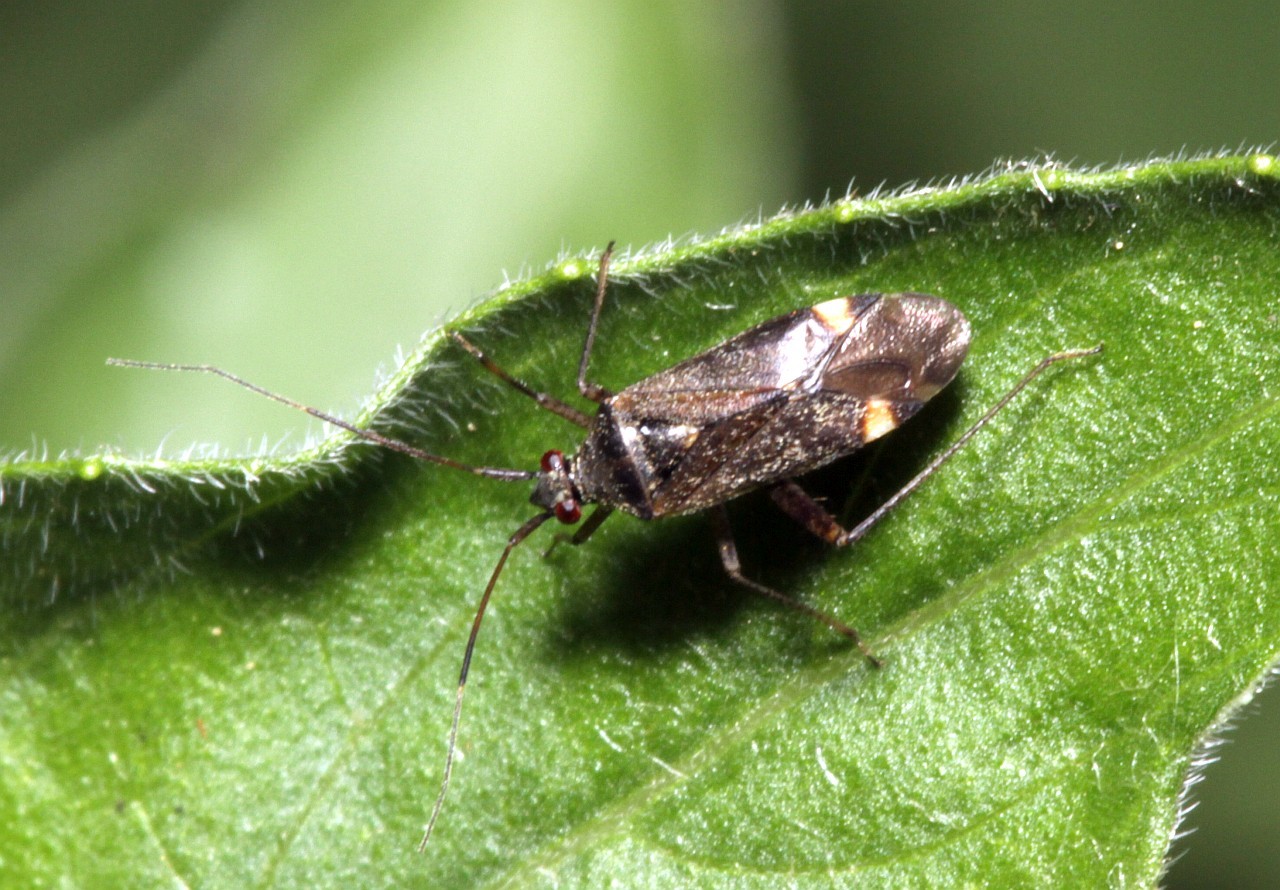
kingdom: Animalia
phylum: Arthropoda
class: Insecta
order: Hemiptera
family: Miridae
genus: Closterotomus
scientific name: Closterotomus fulvomaculatus
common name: Spotted plant bug
